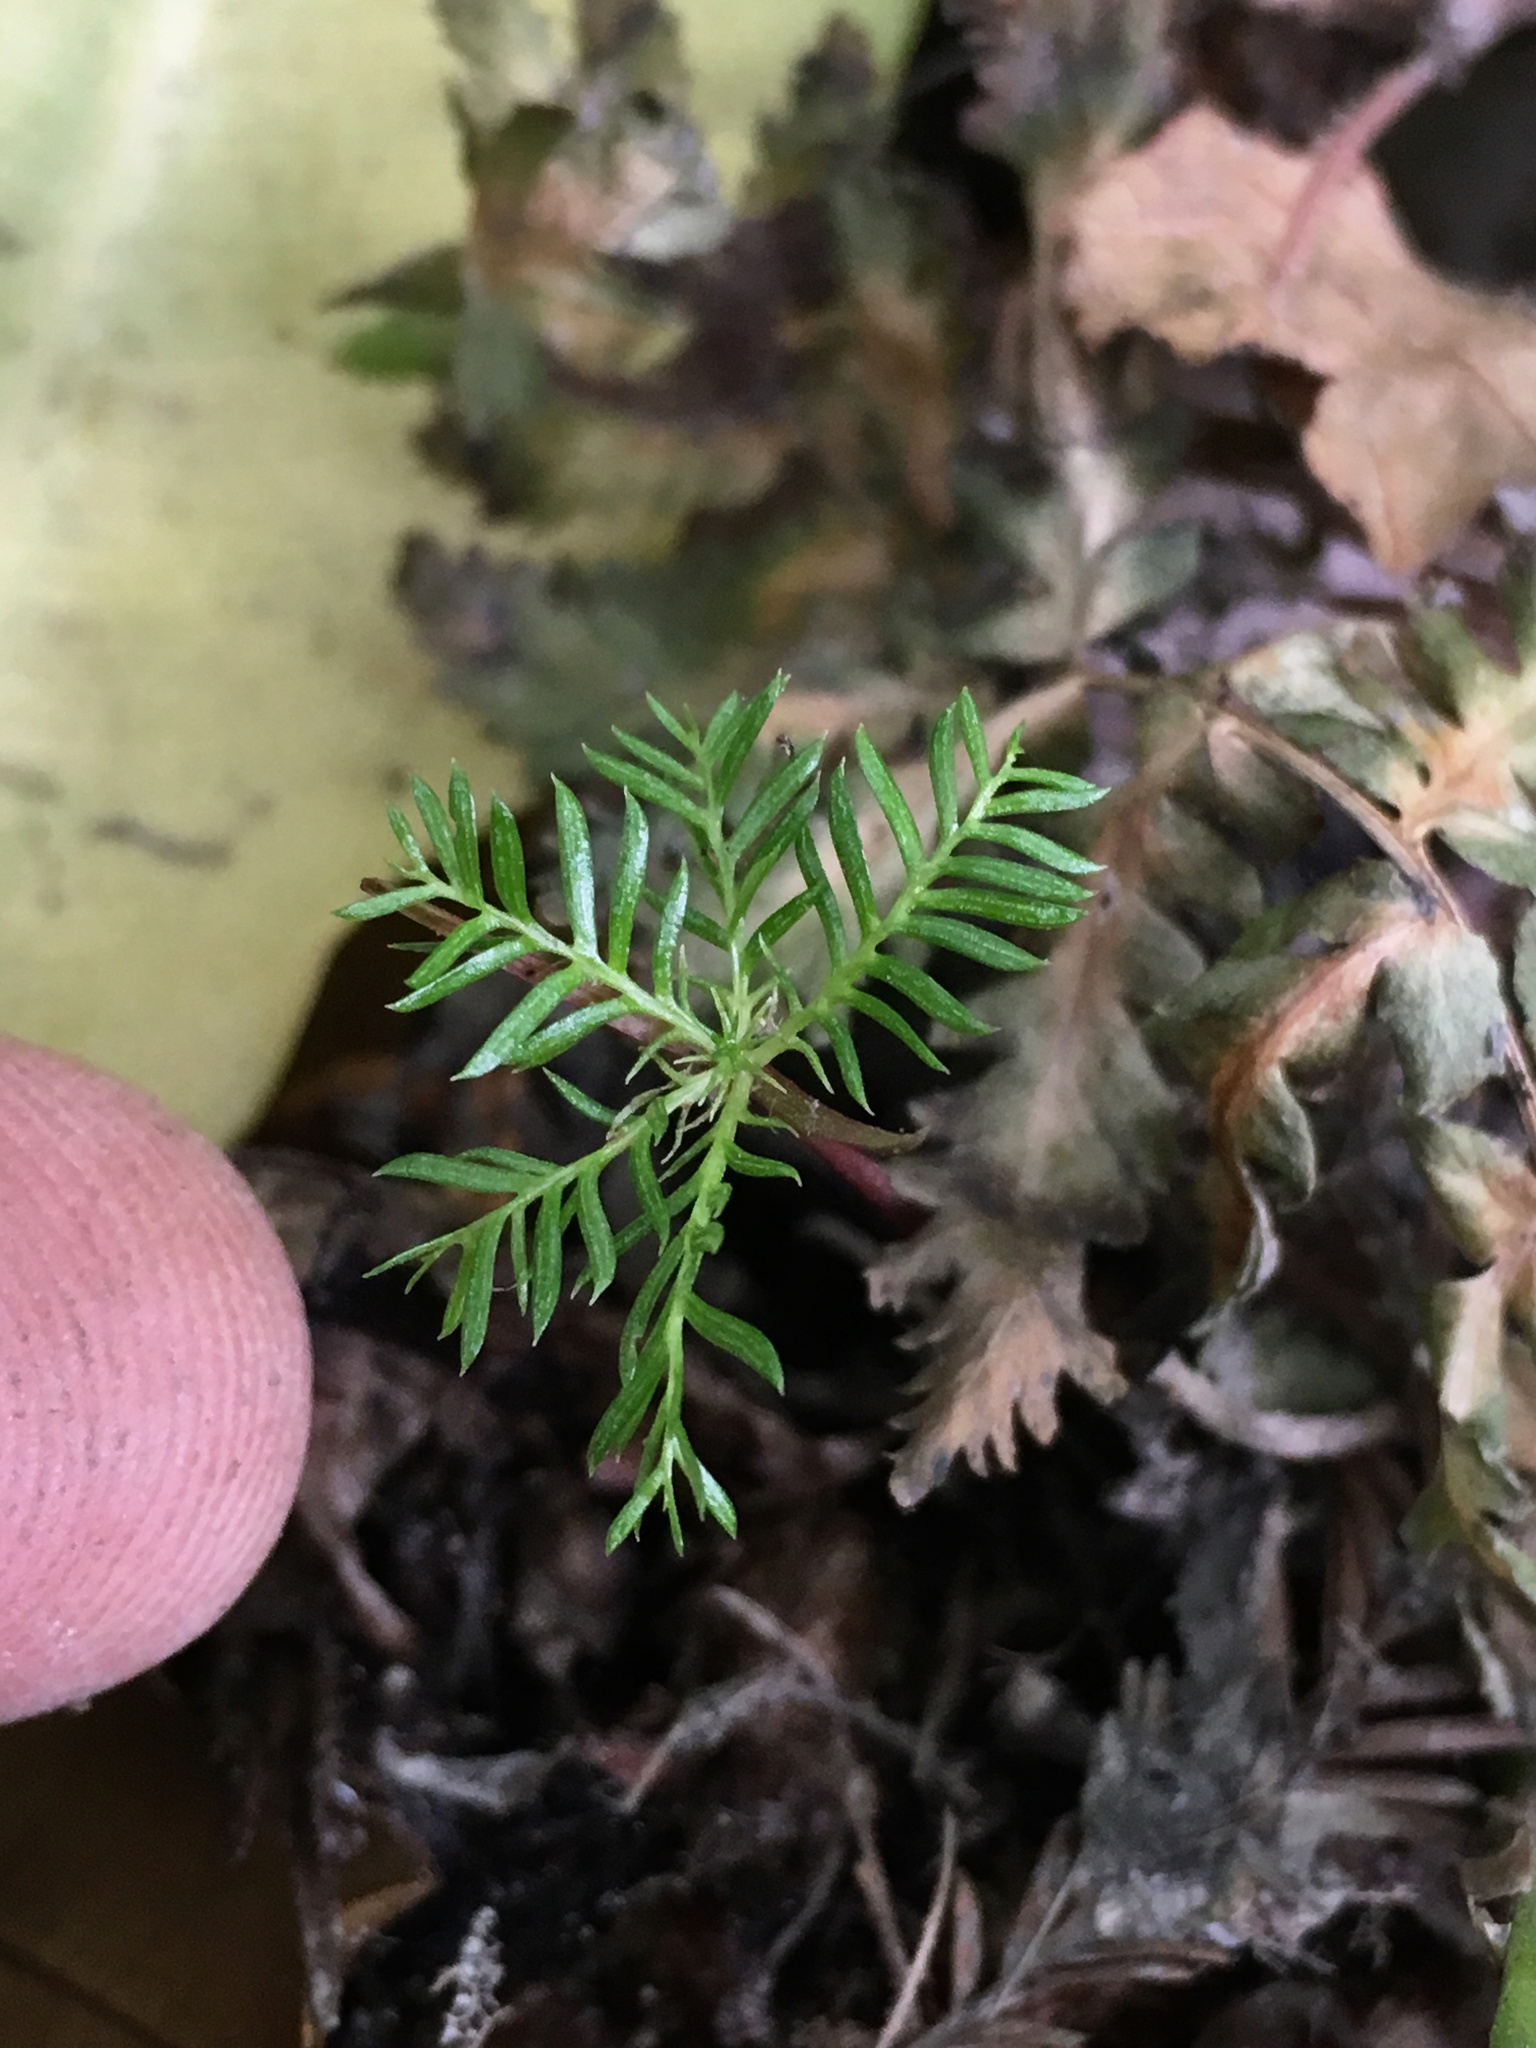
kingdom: Plantae
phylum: Tracheophyta
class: Pinopsida
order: Pinales
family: Podocarpaceae
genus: Dacrycarpus
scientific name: Dacrycarpus dacrydioides
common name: White pine
